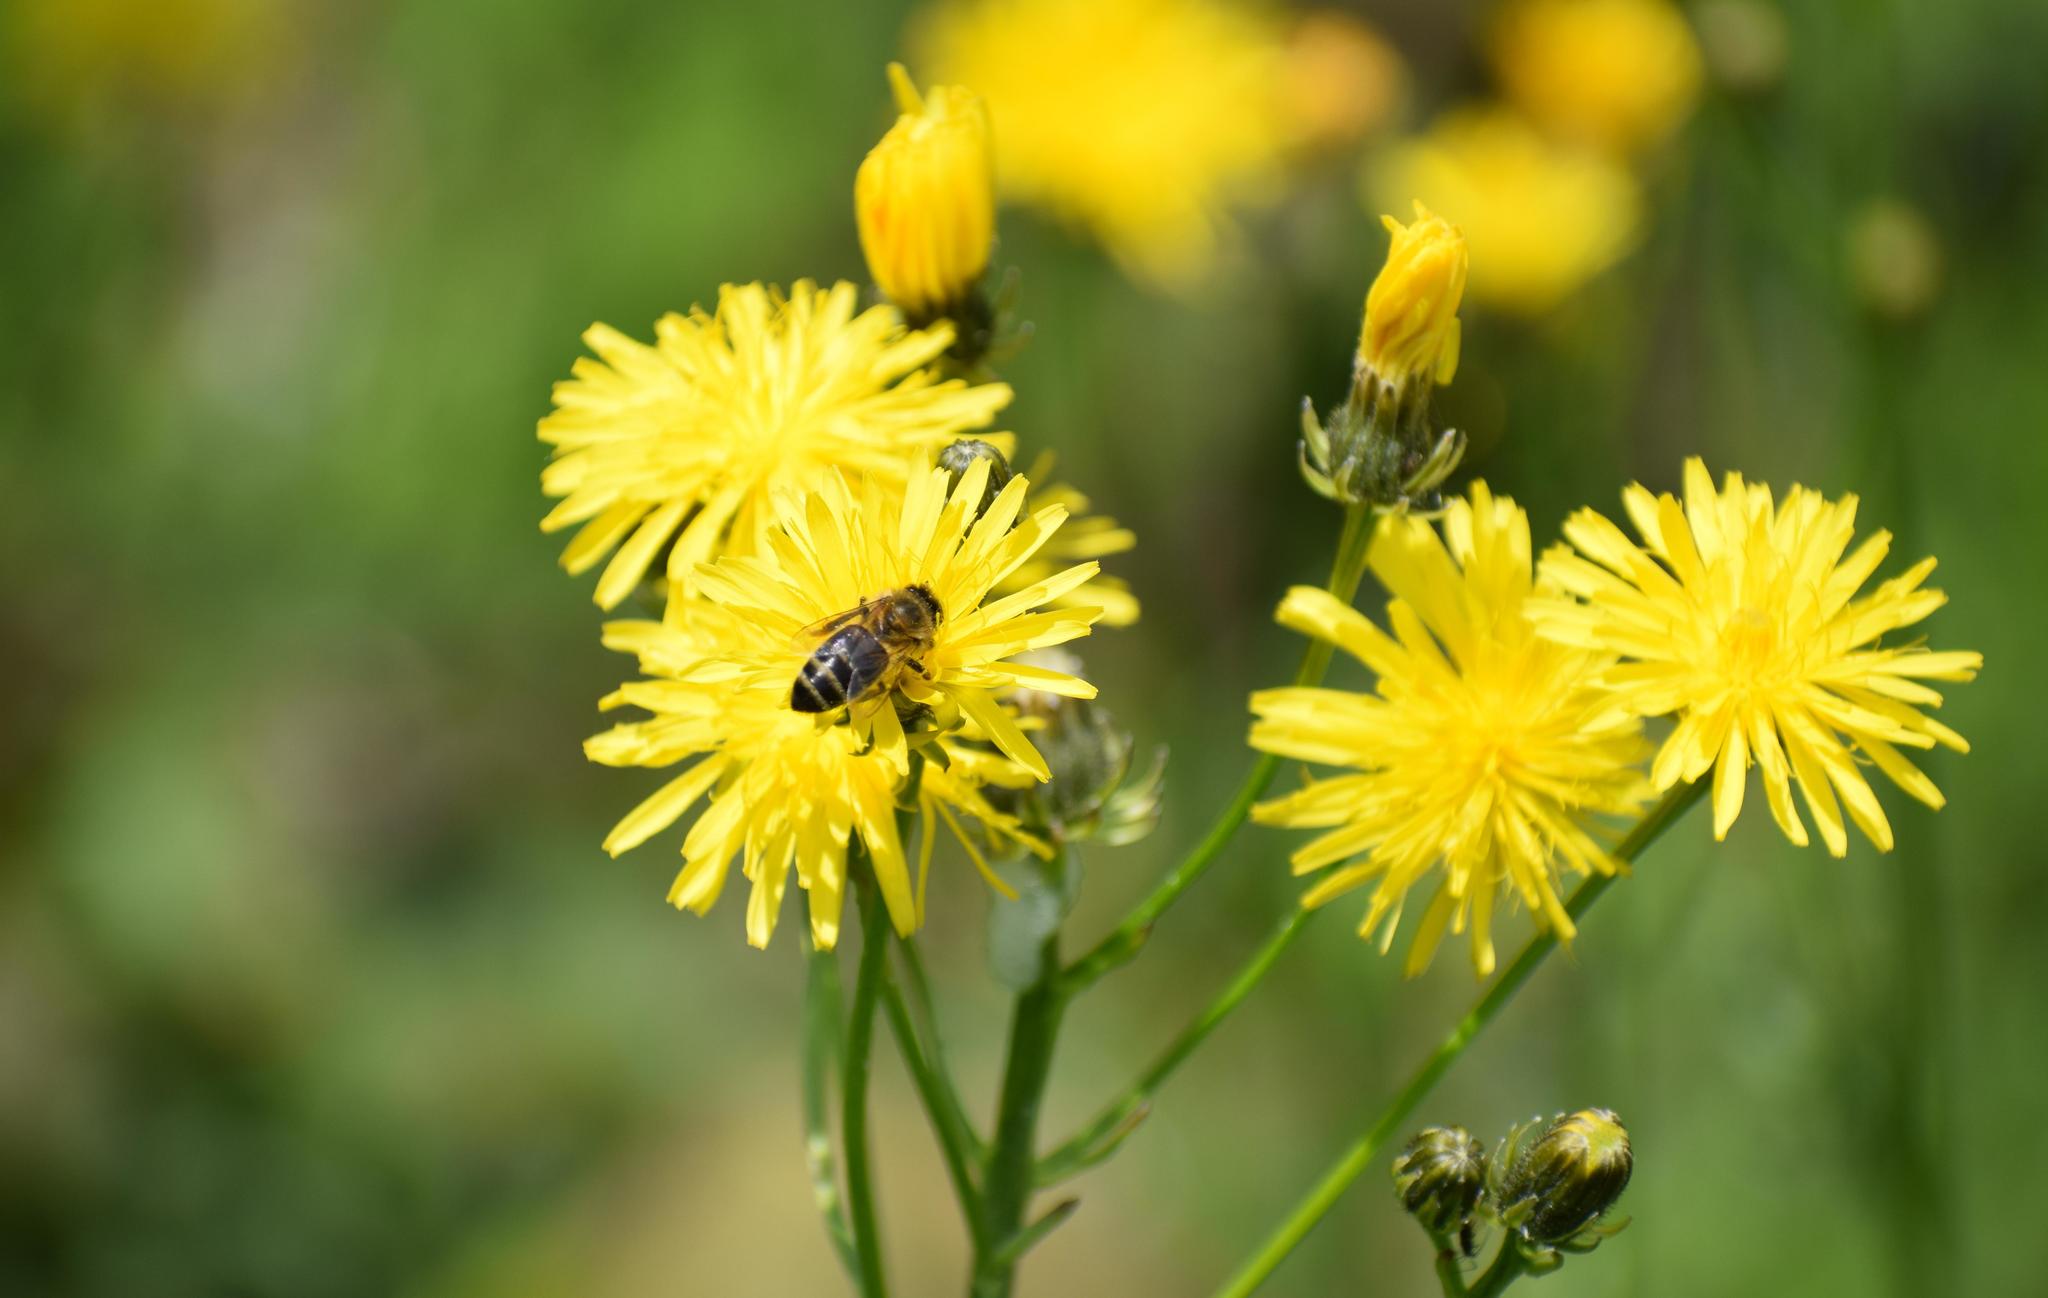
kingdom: Animalia
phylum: Arthropoda
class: Insecta
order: Hymenoptera
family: Apidae
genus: Apis
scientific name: Apis mellifera
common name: Honey bee
